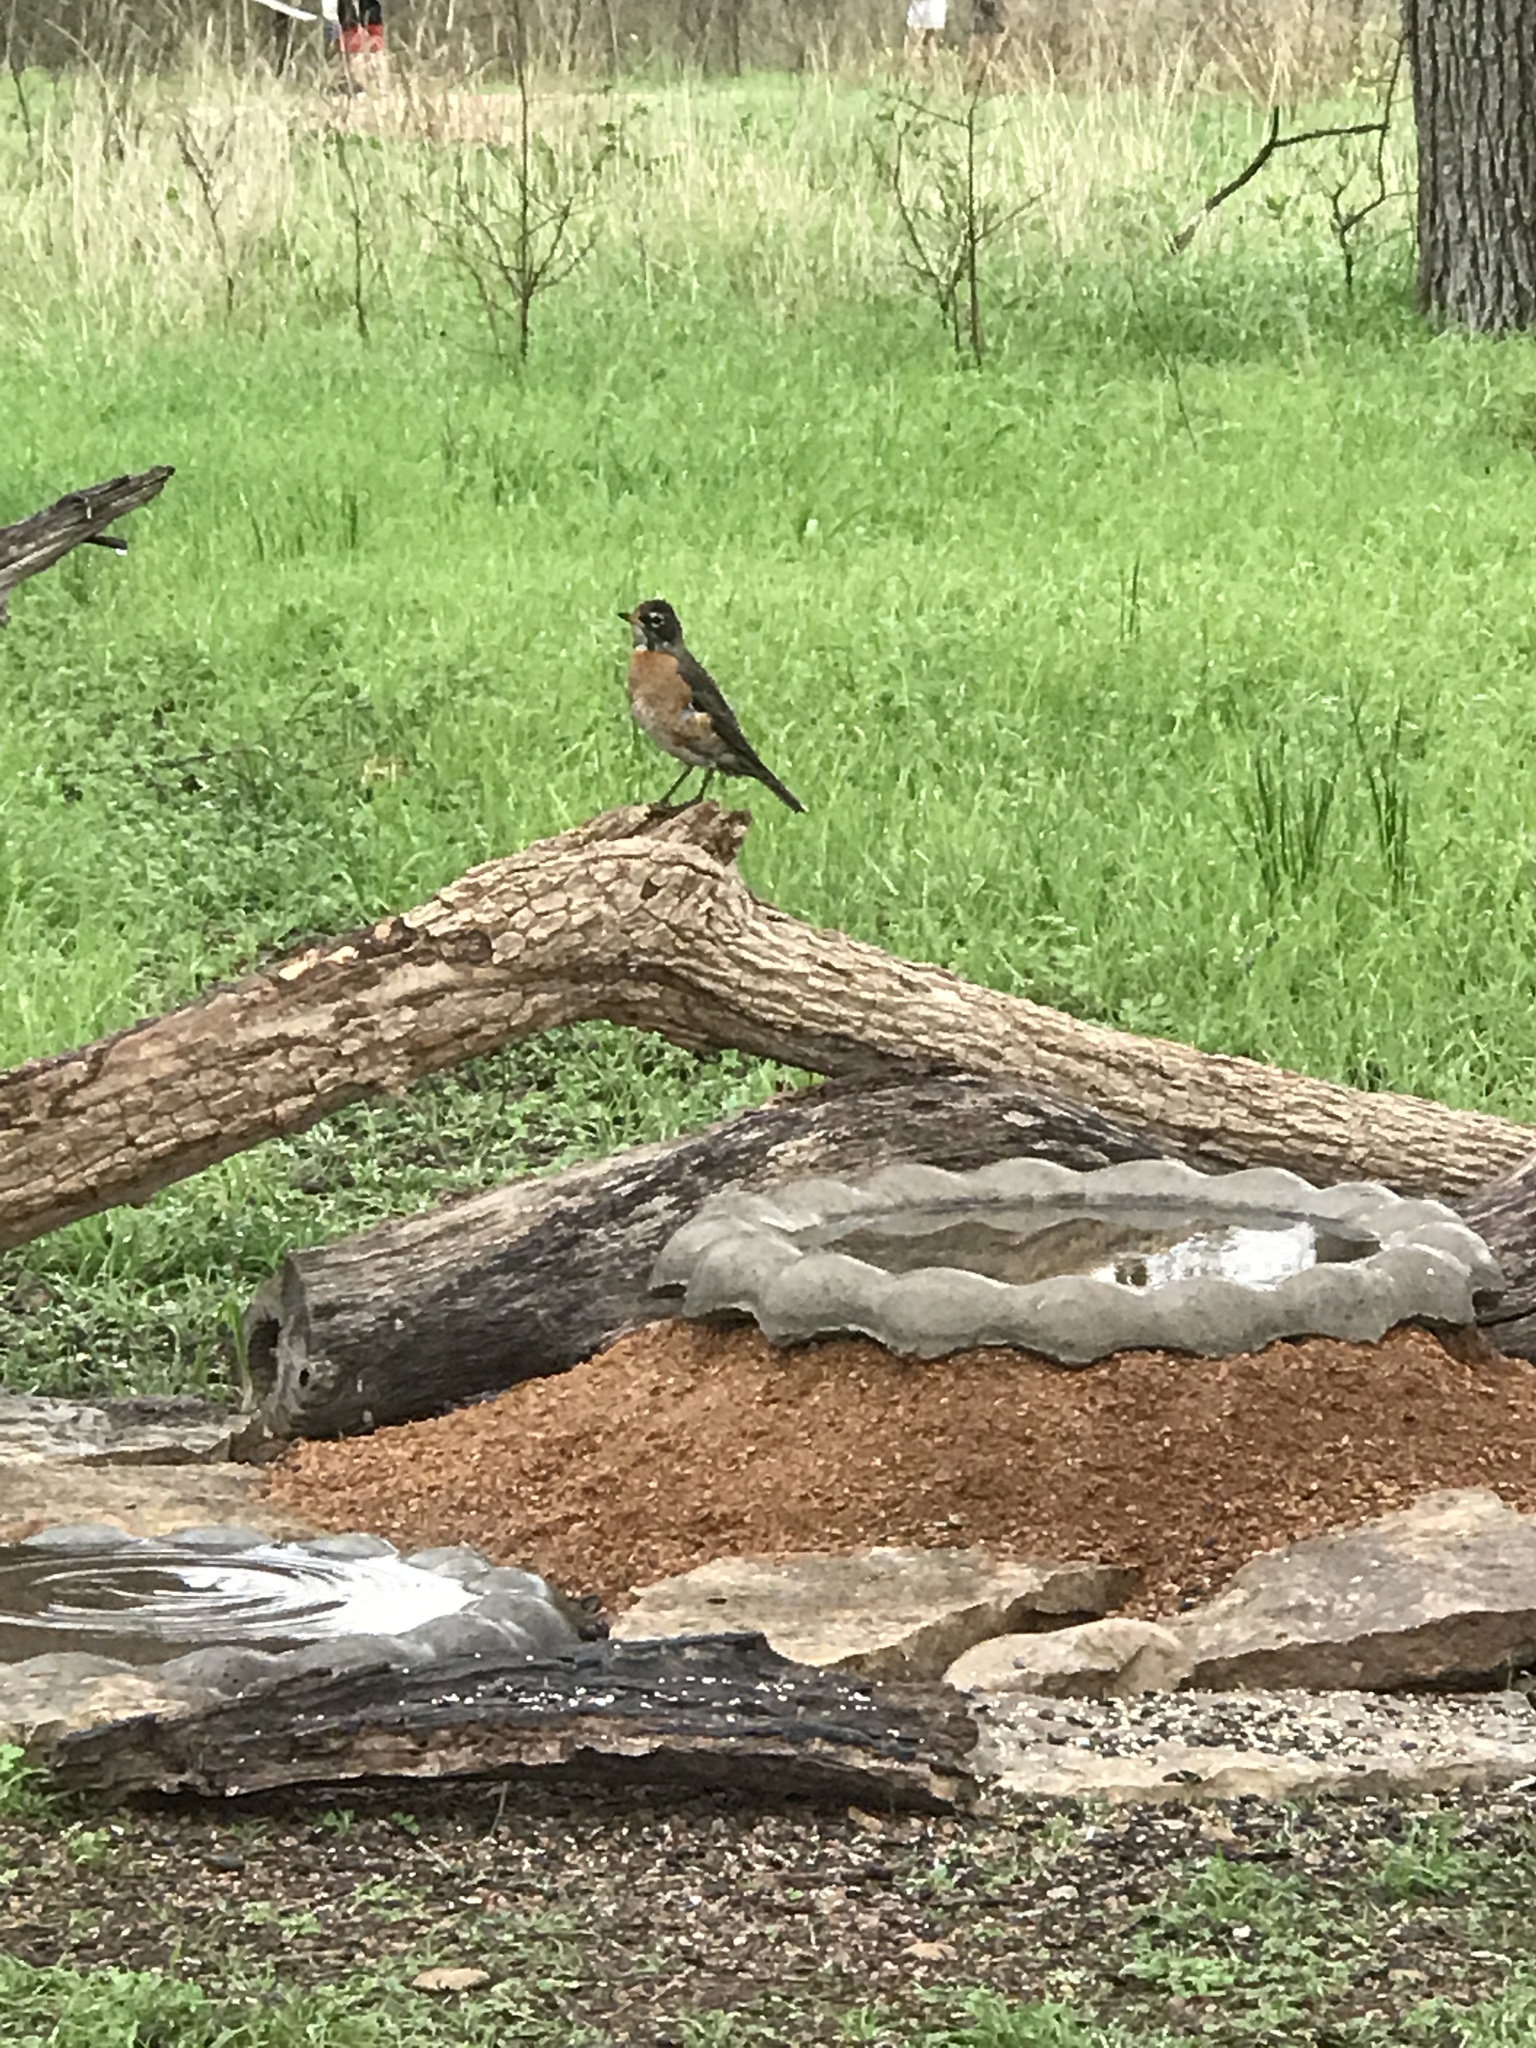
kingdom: Animalia
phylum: Chordata
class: Aves
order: Passeriformes
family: Turdidae
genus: Turdus
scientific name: Turdus migratorius
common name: American robin
